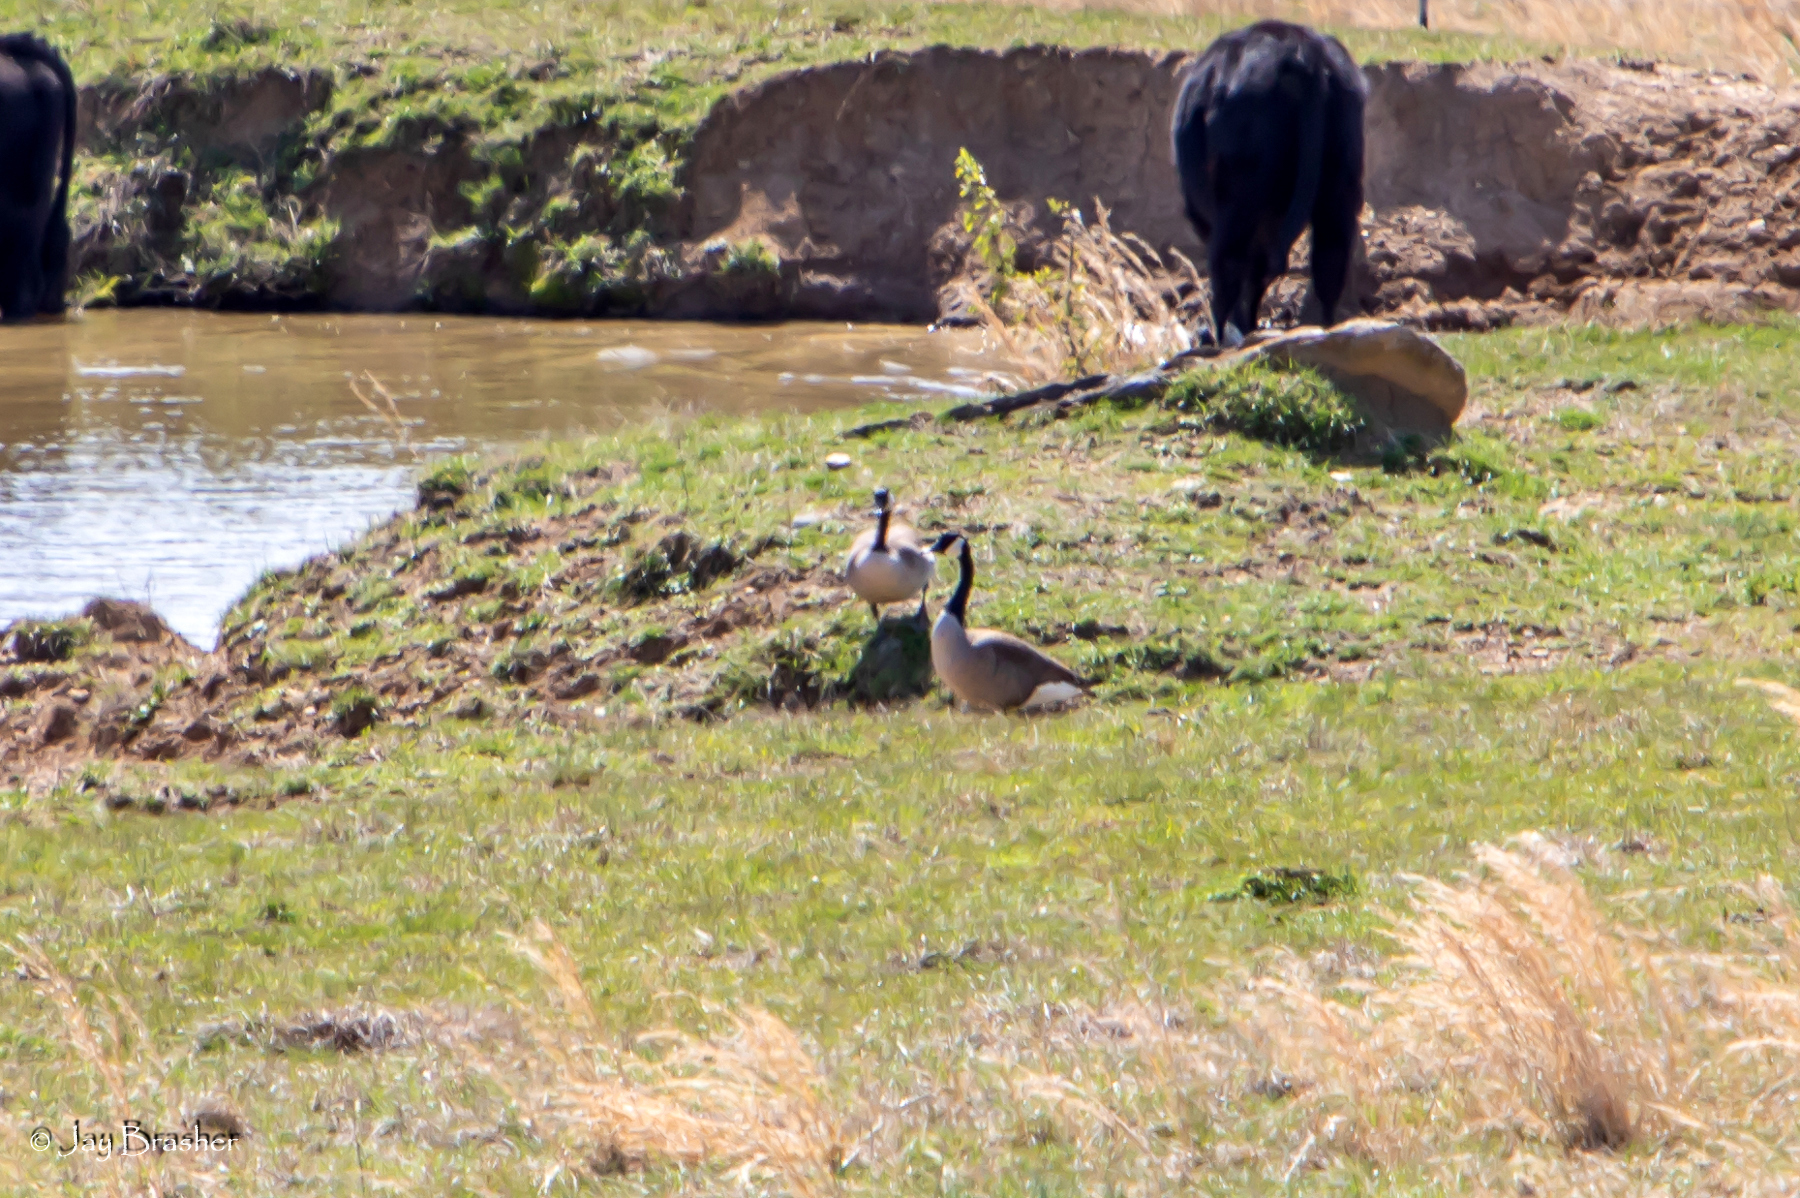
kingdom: Animalia
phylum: Chordata
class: Aves
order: Anseriformes
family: Anatidae
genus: Branta
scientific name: Branta canadensis
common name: Canada goose
